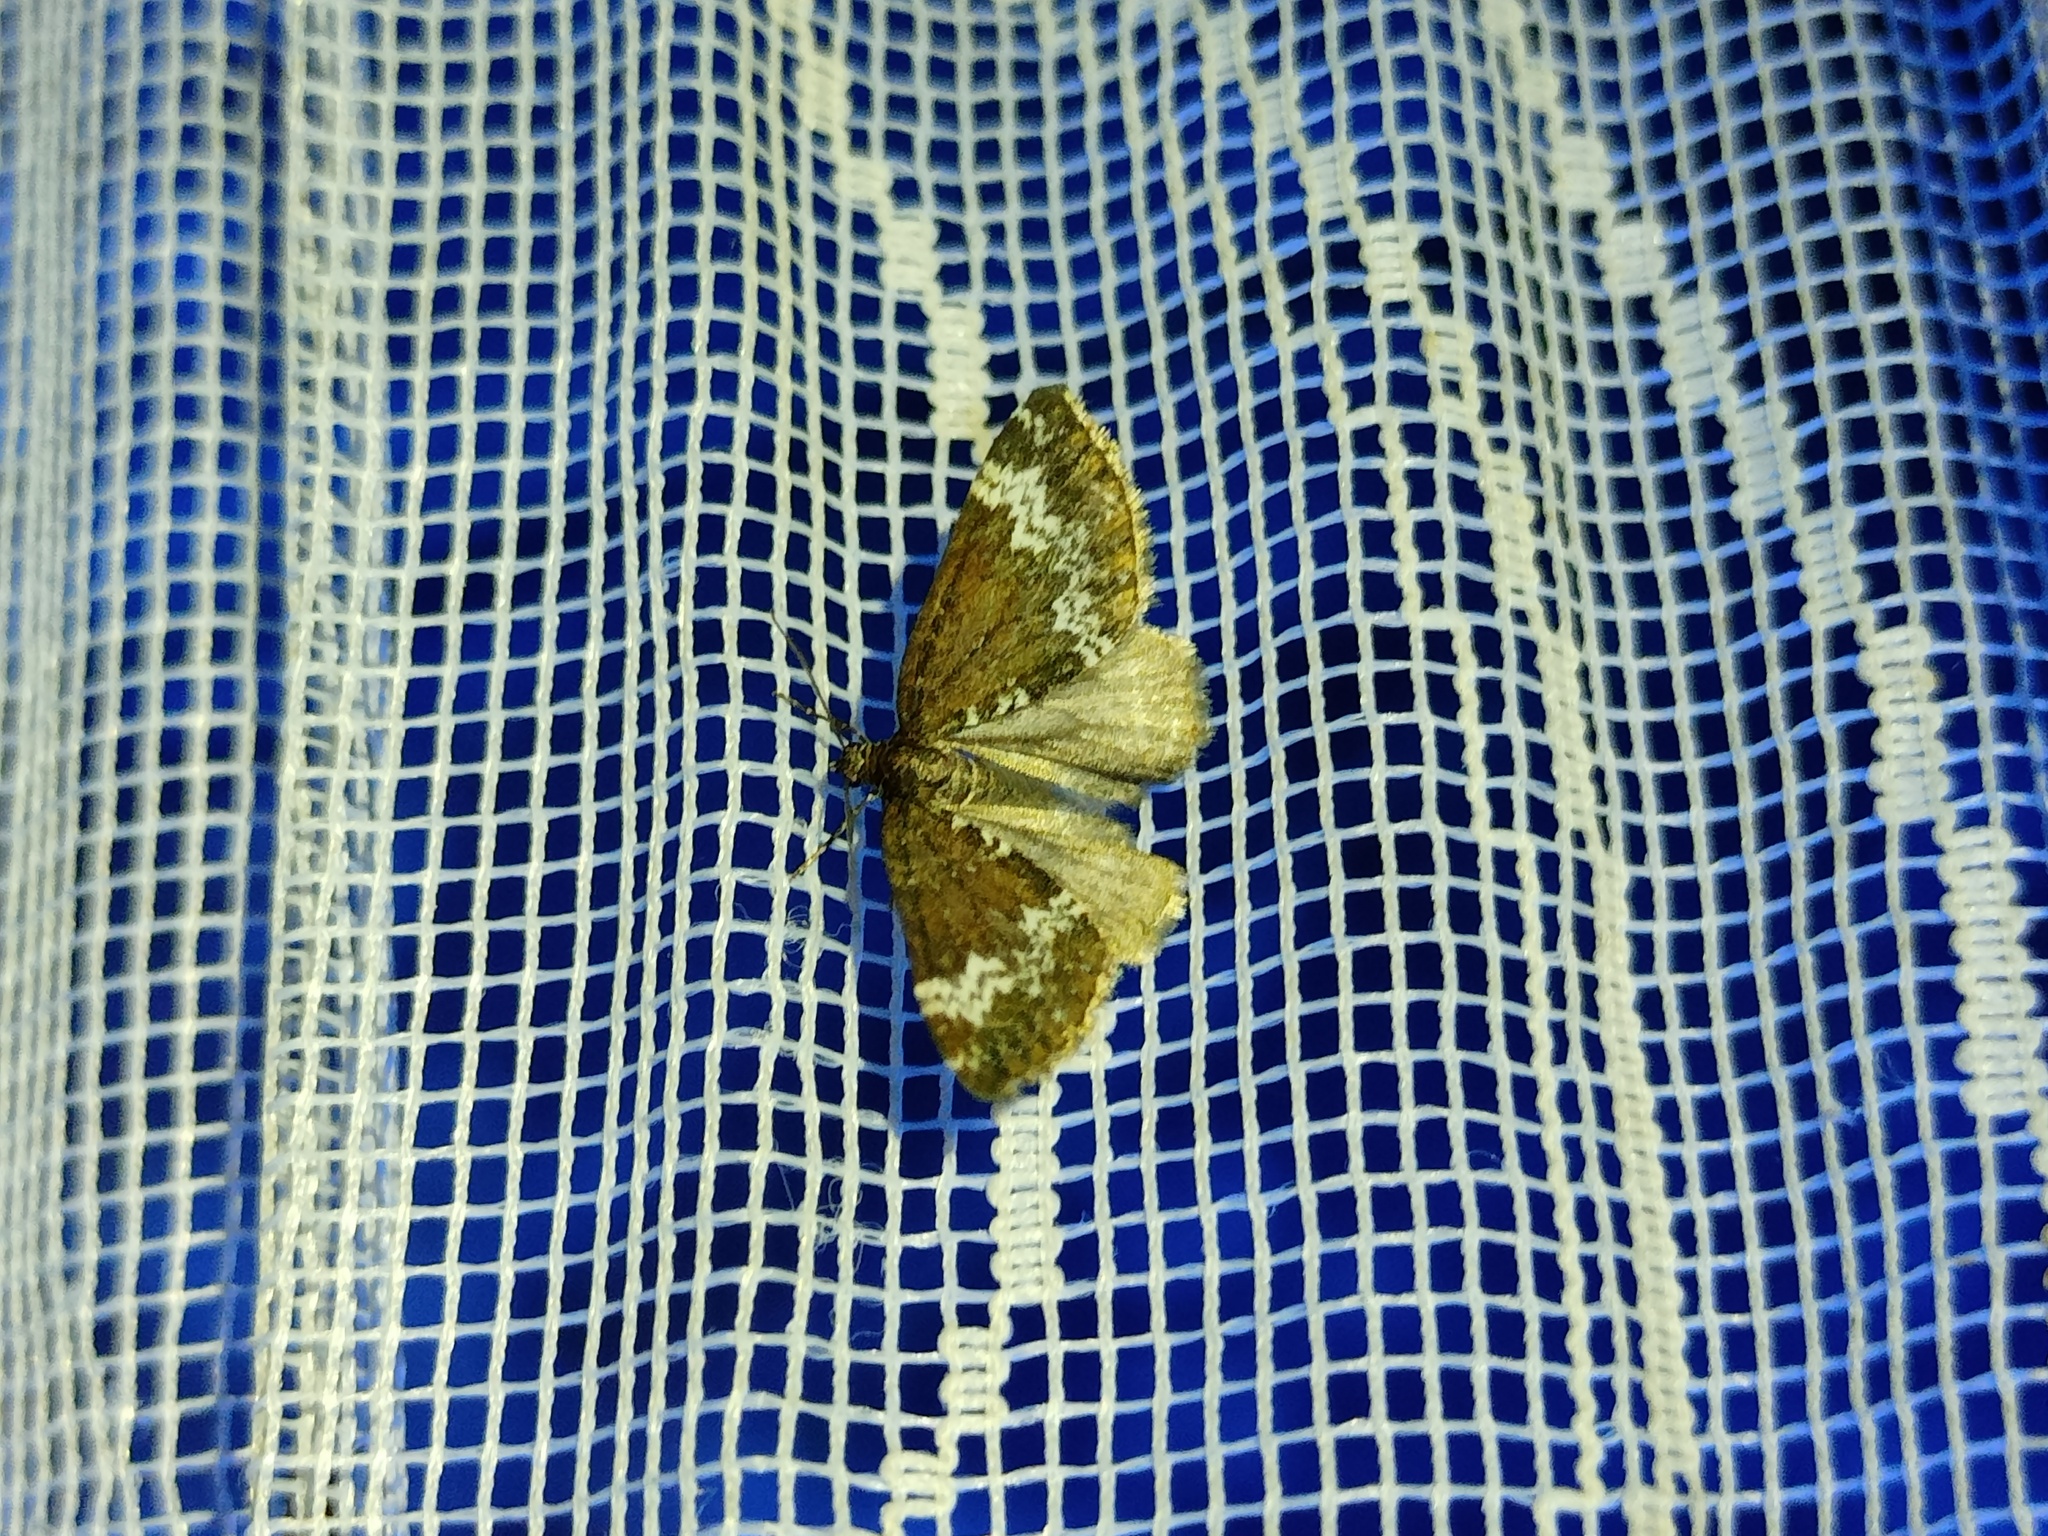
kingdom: Animalia
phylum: Arthropoda
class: Insecta
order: Lepidoptera
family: Geometridae
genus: Perizoma
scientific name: Perizoma alchemillata
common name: Small rivulet
